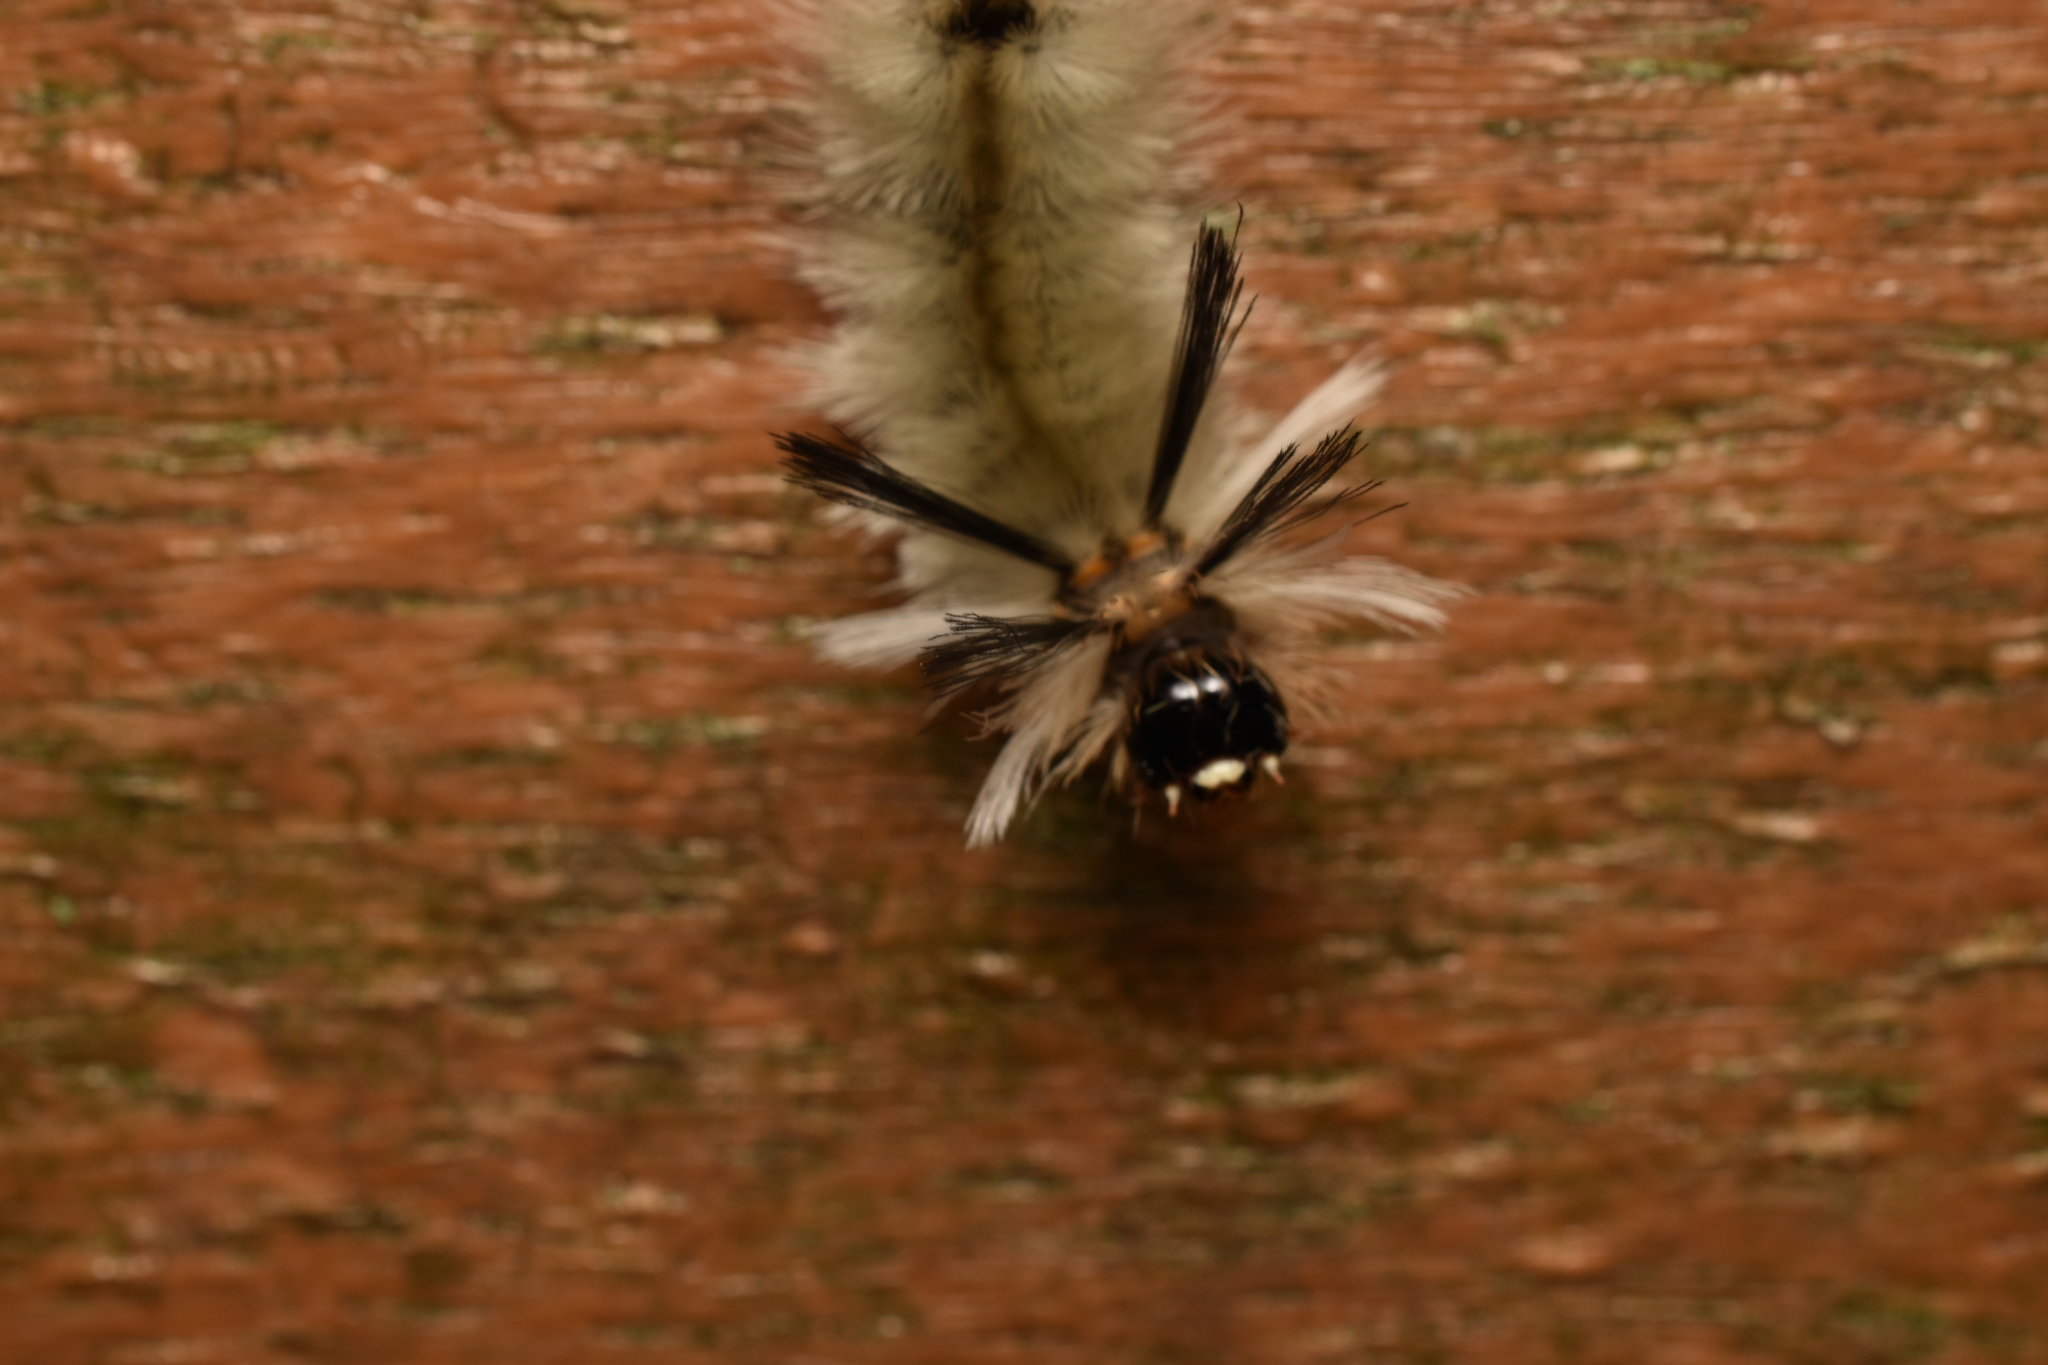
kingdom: Animalia
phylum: Arthropoda
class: Insecta
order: Lepidoptera
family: Erebidae
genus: Halysidota
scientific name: Halysidota tessellaris
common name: Banded tussock moth
